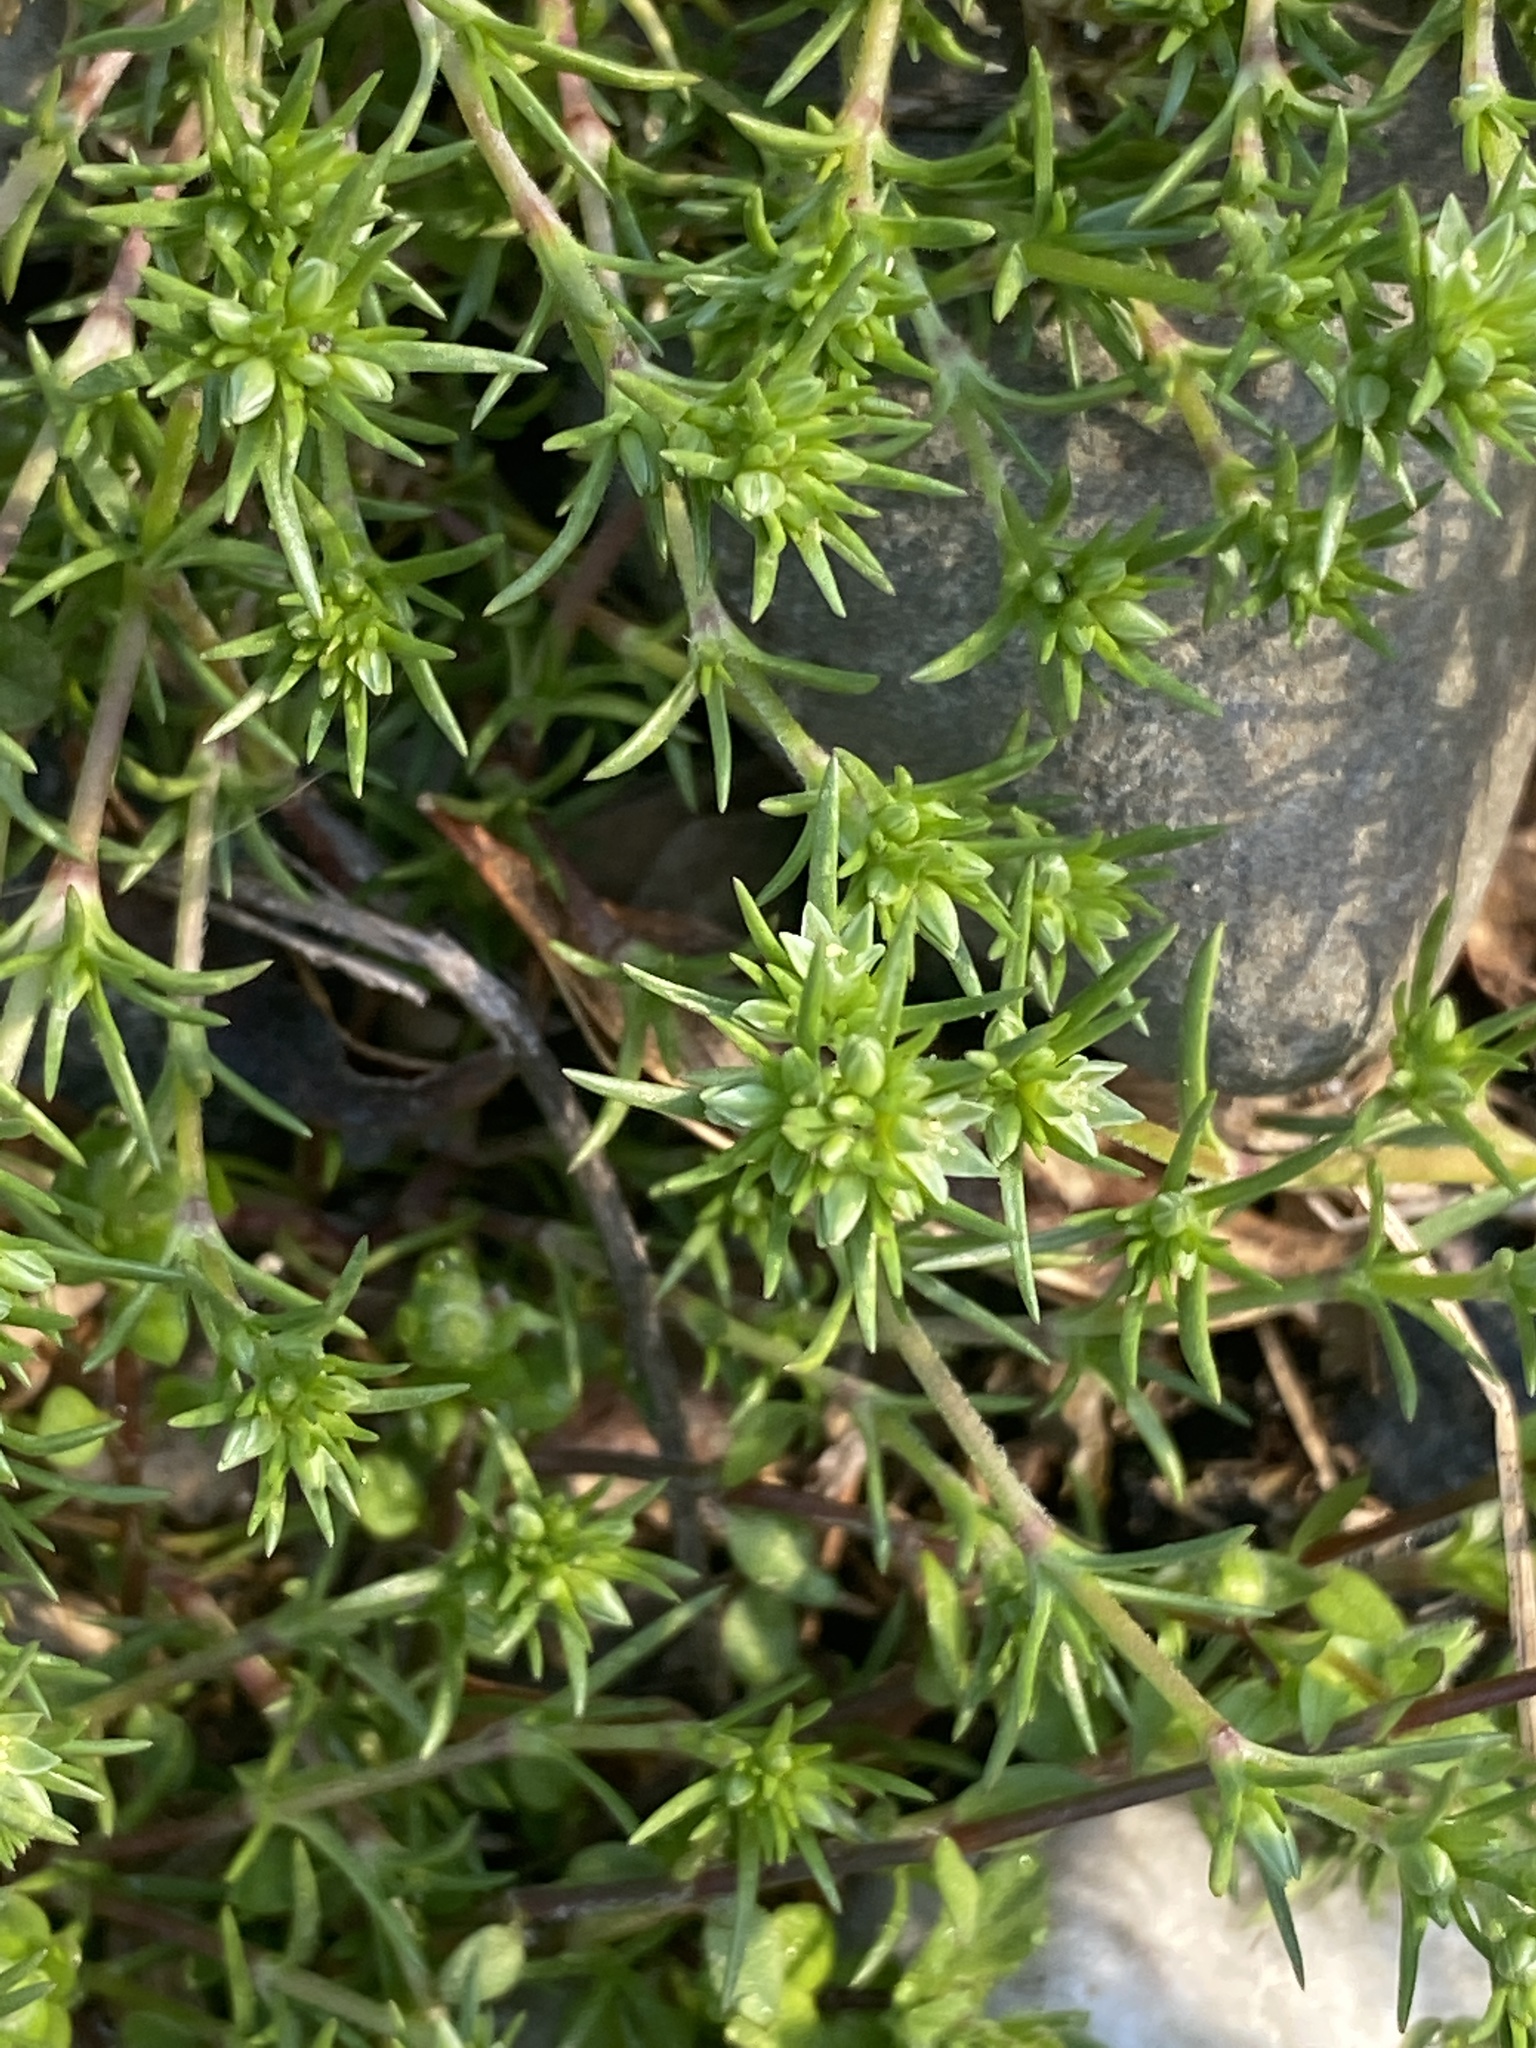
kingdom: Plantae
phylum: Tracheophyta
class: Magnoliopsida
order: Caryophyllales
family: Caryophyllaceae
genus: Scleranthus
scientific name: Scleranthus annuus
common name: Annual knawel
